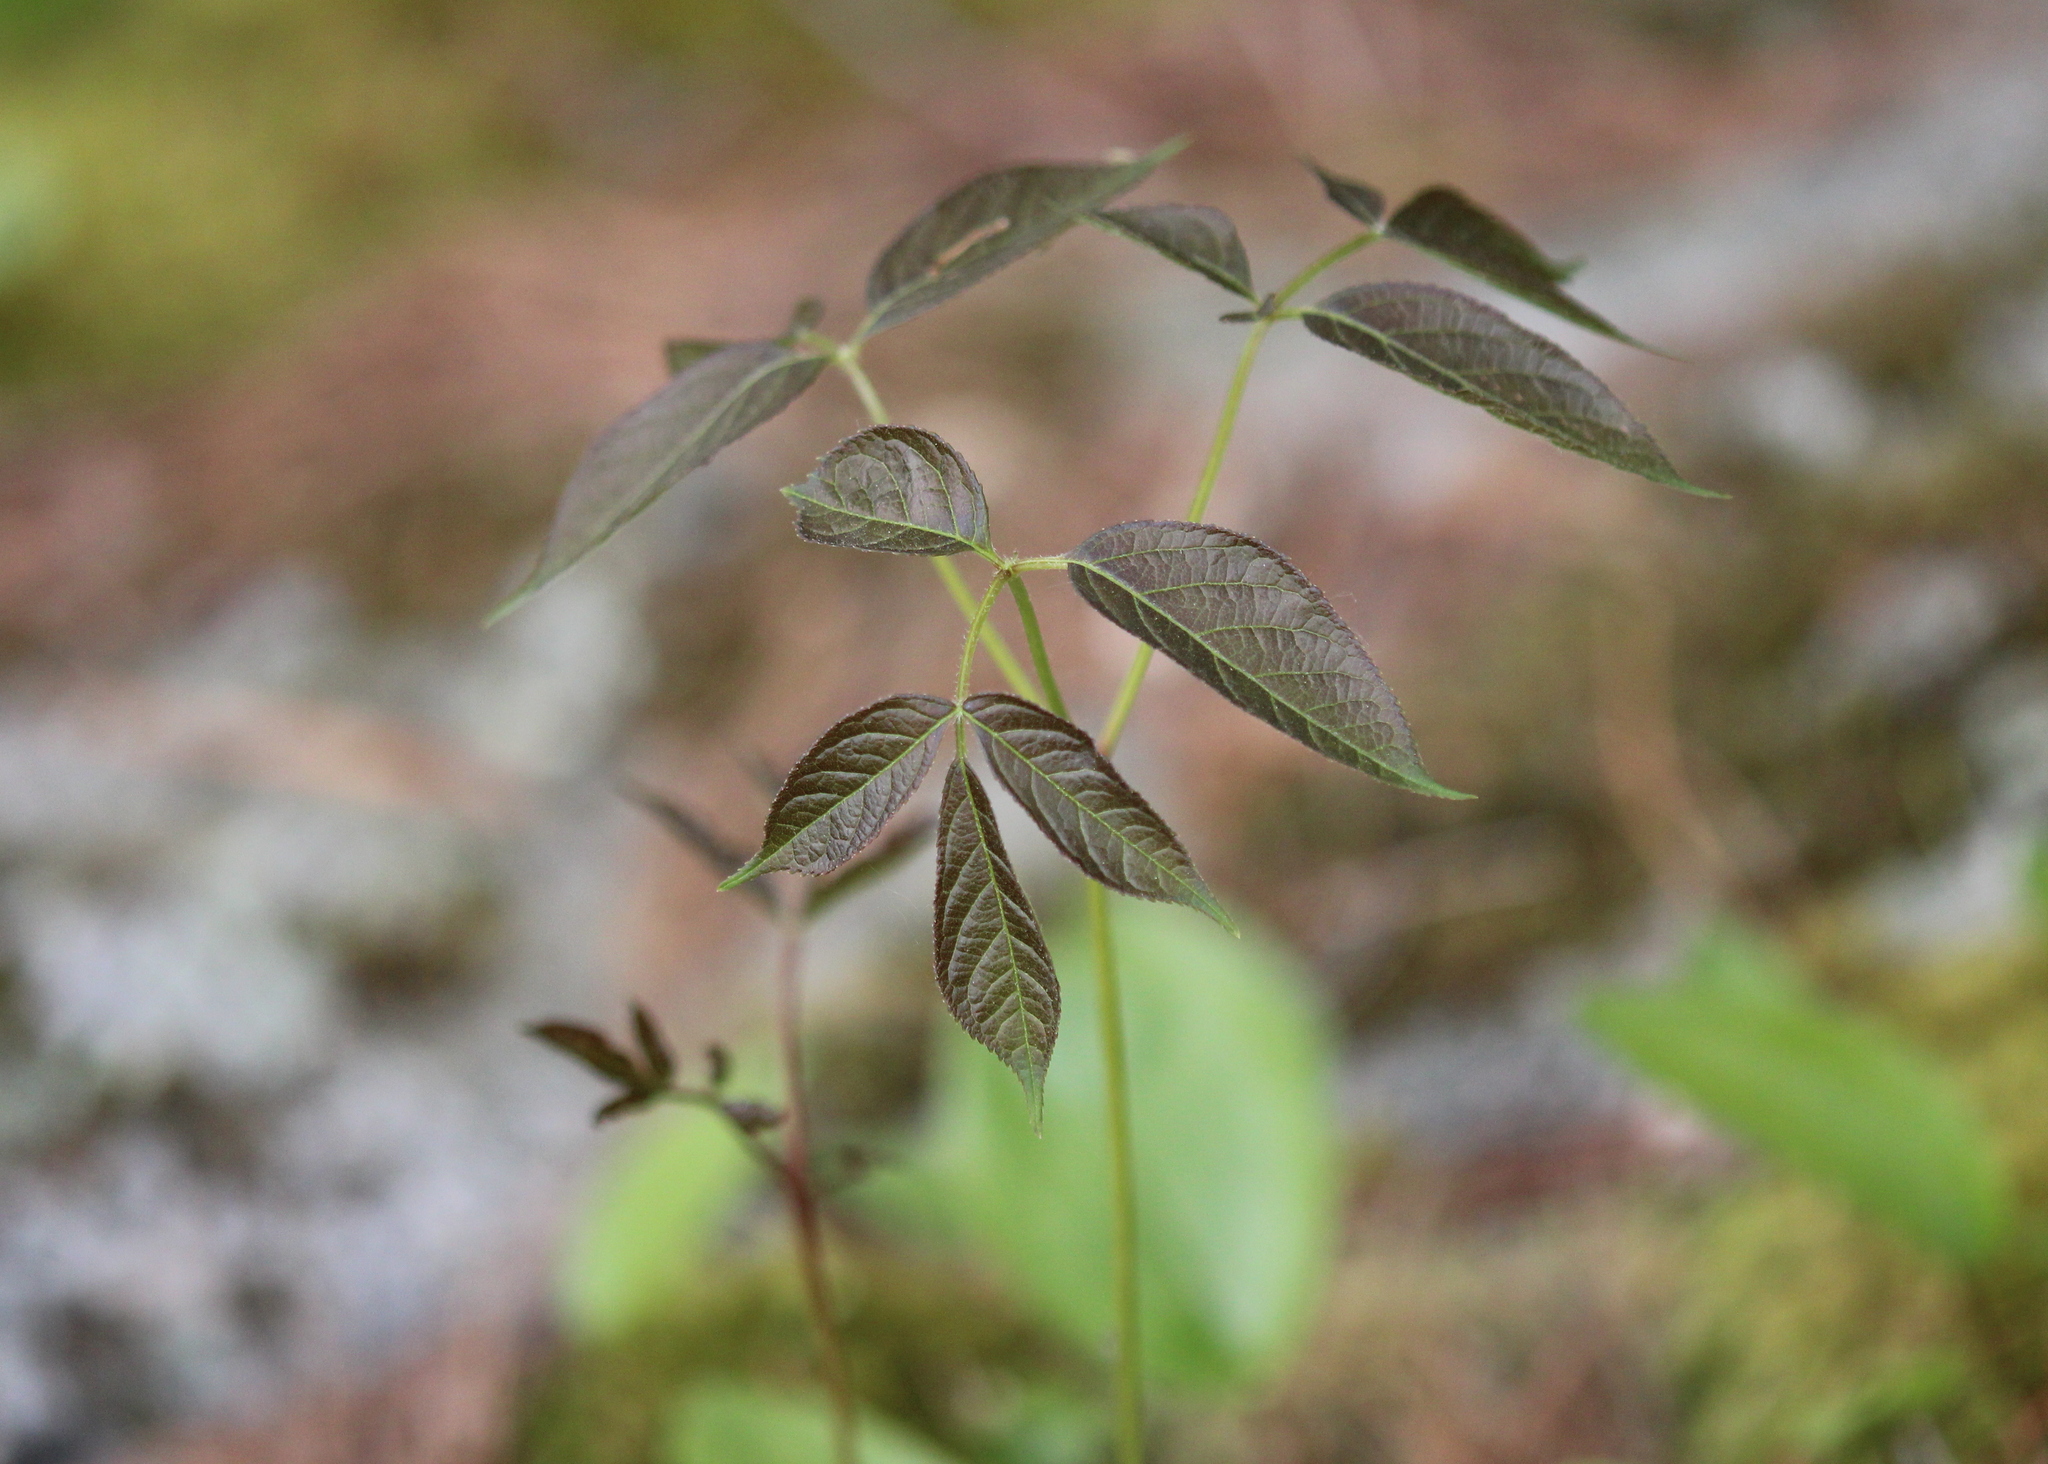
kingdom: Plantae
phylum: Tracheophyta
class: Magnoliopsida
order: Apiales
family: Araliaceae
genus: Aralia
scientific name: Aralia nudicaulis
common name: Wild sarsaparilla
